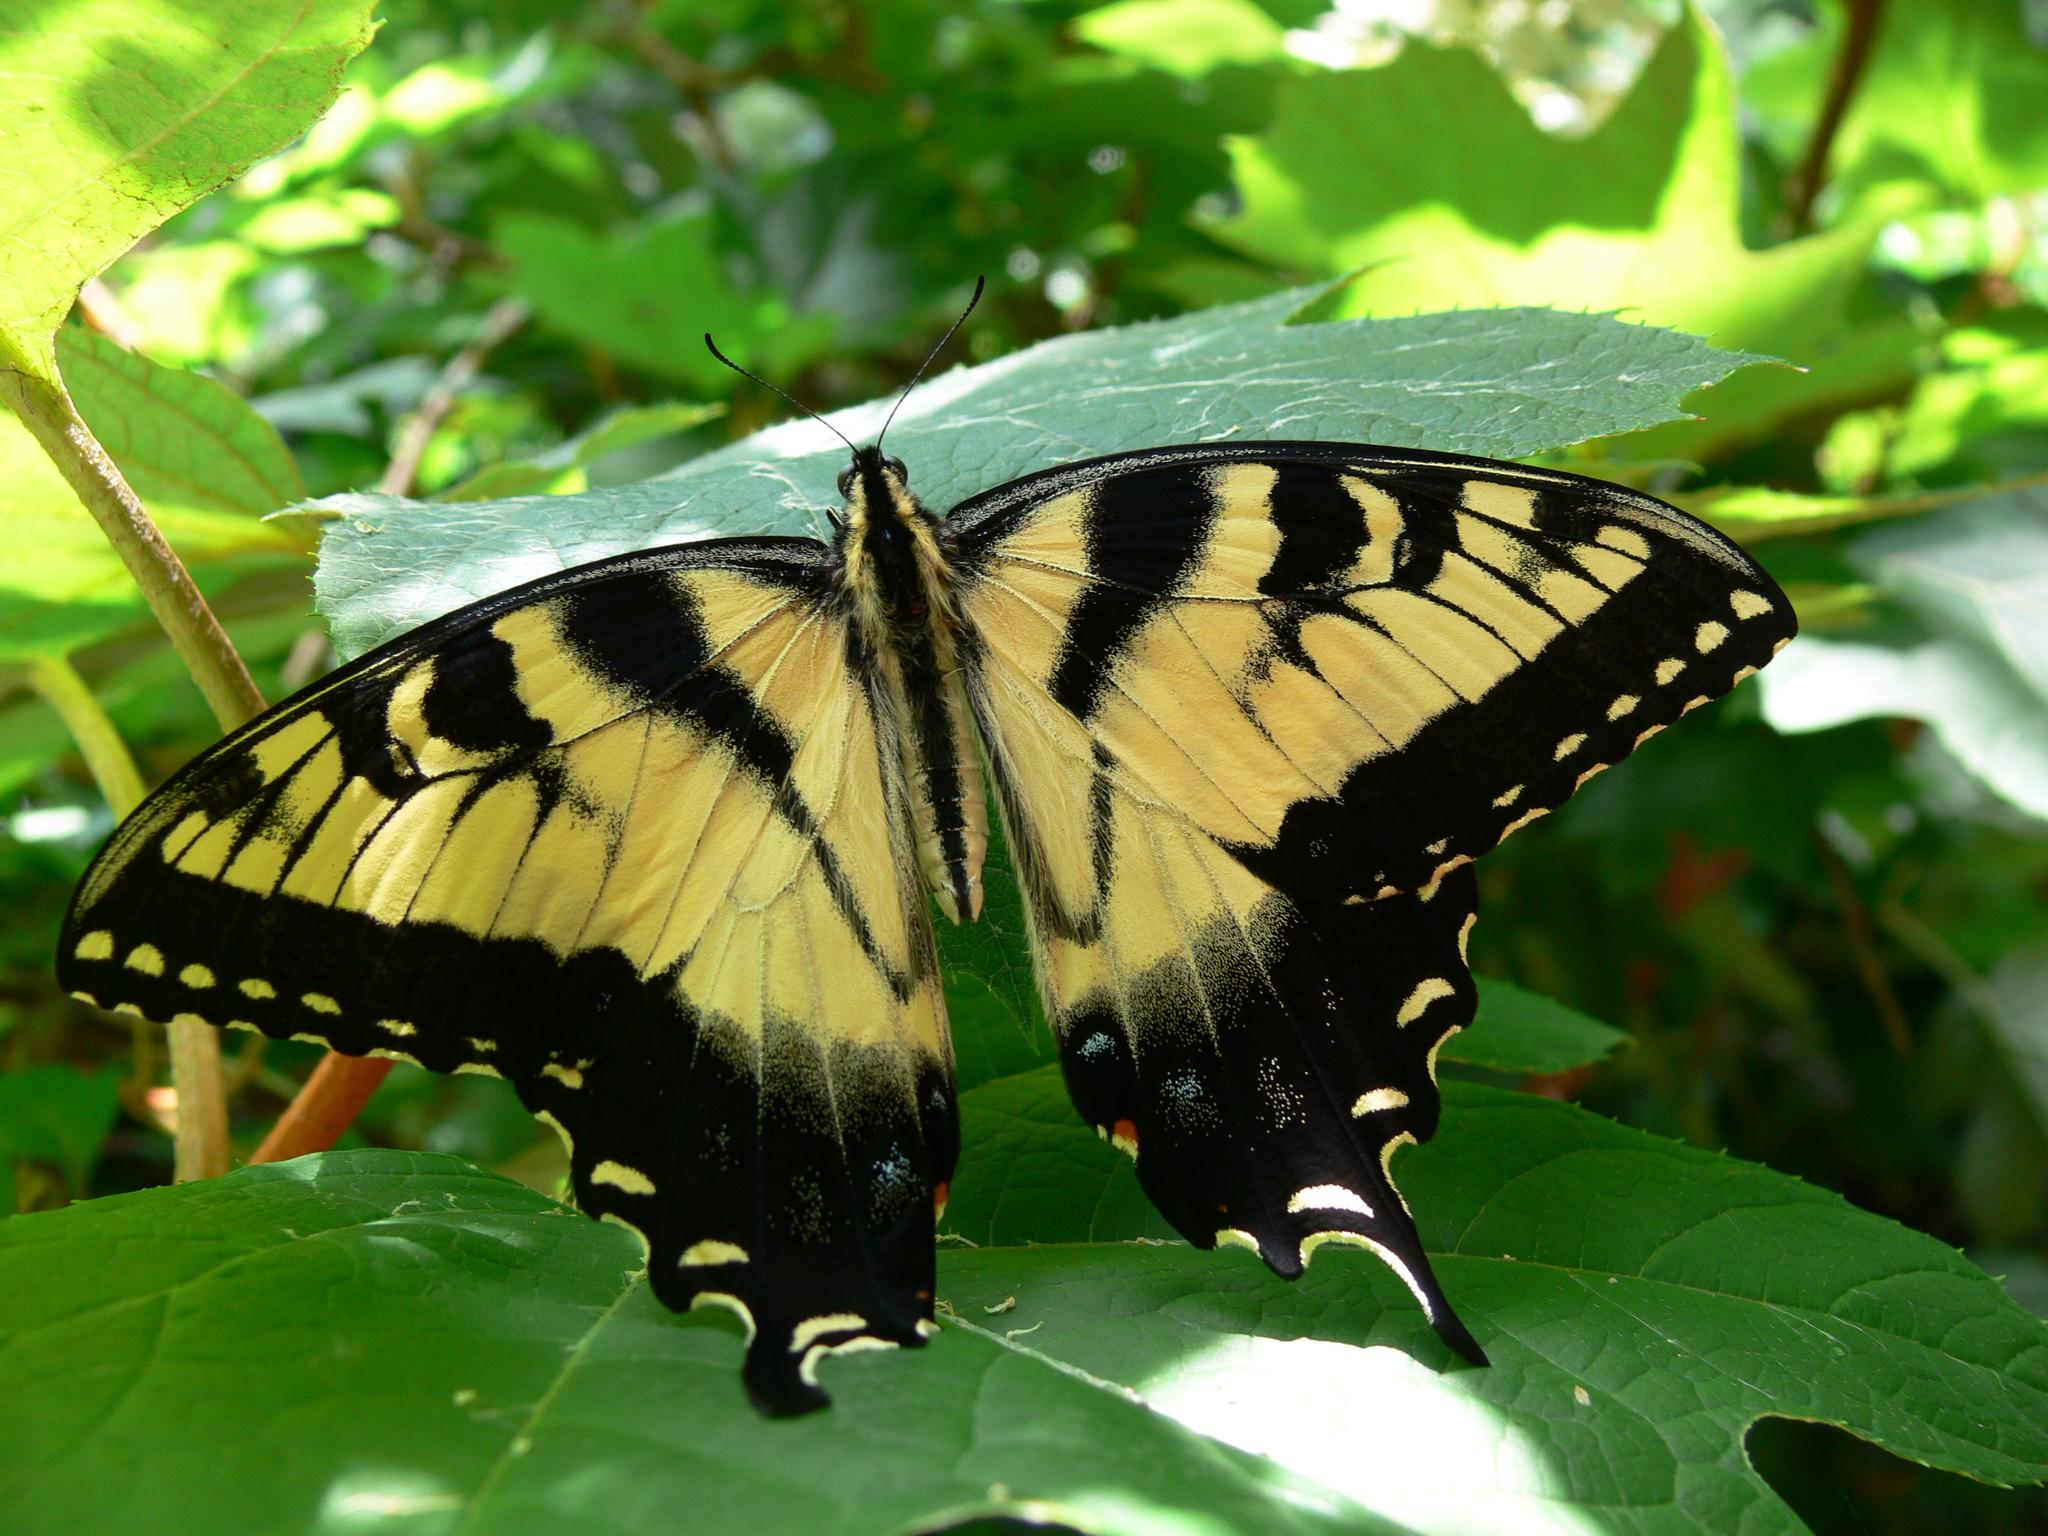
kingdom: Animalia
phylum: Arthropoda
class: Insecta
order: Lepidoptera
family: Papilionidae
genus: Papilio
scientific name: Papilio glaucus
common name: Tiger swallowtail
